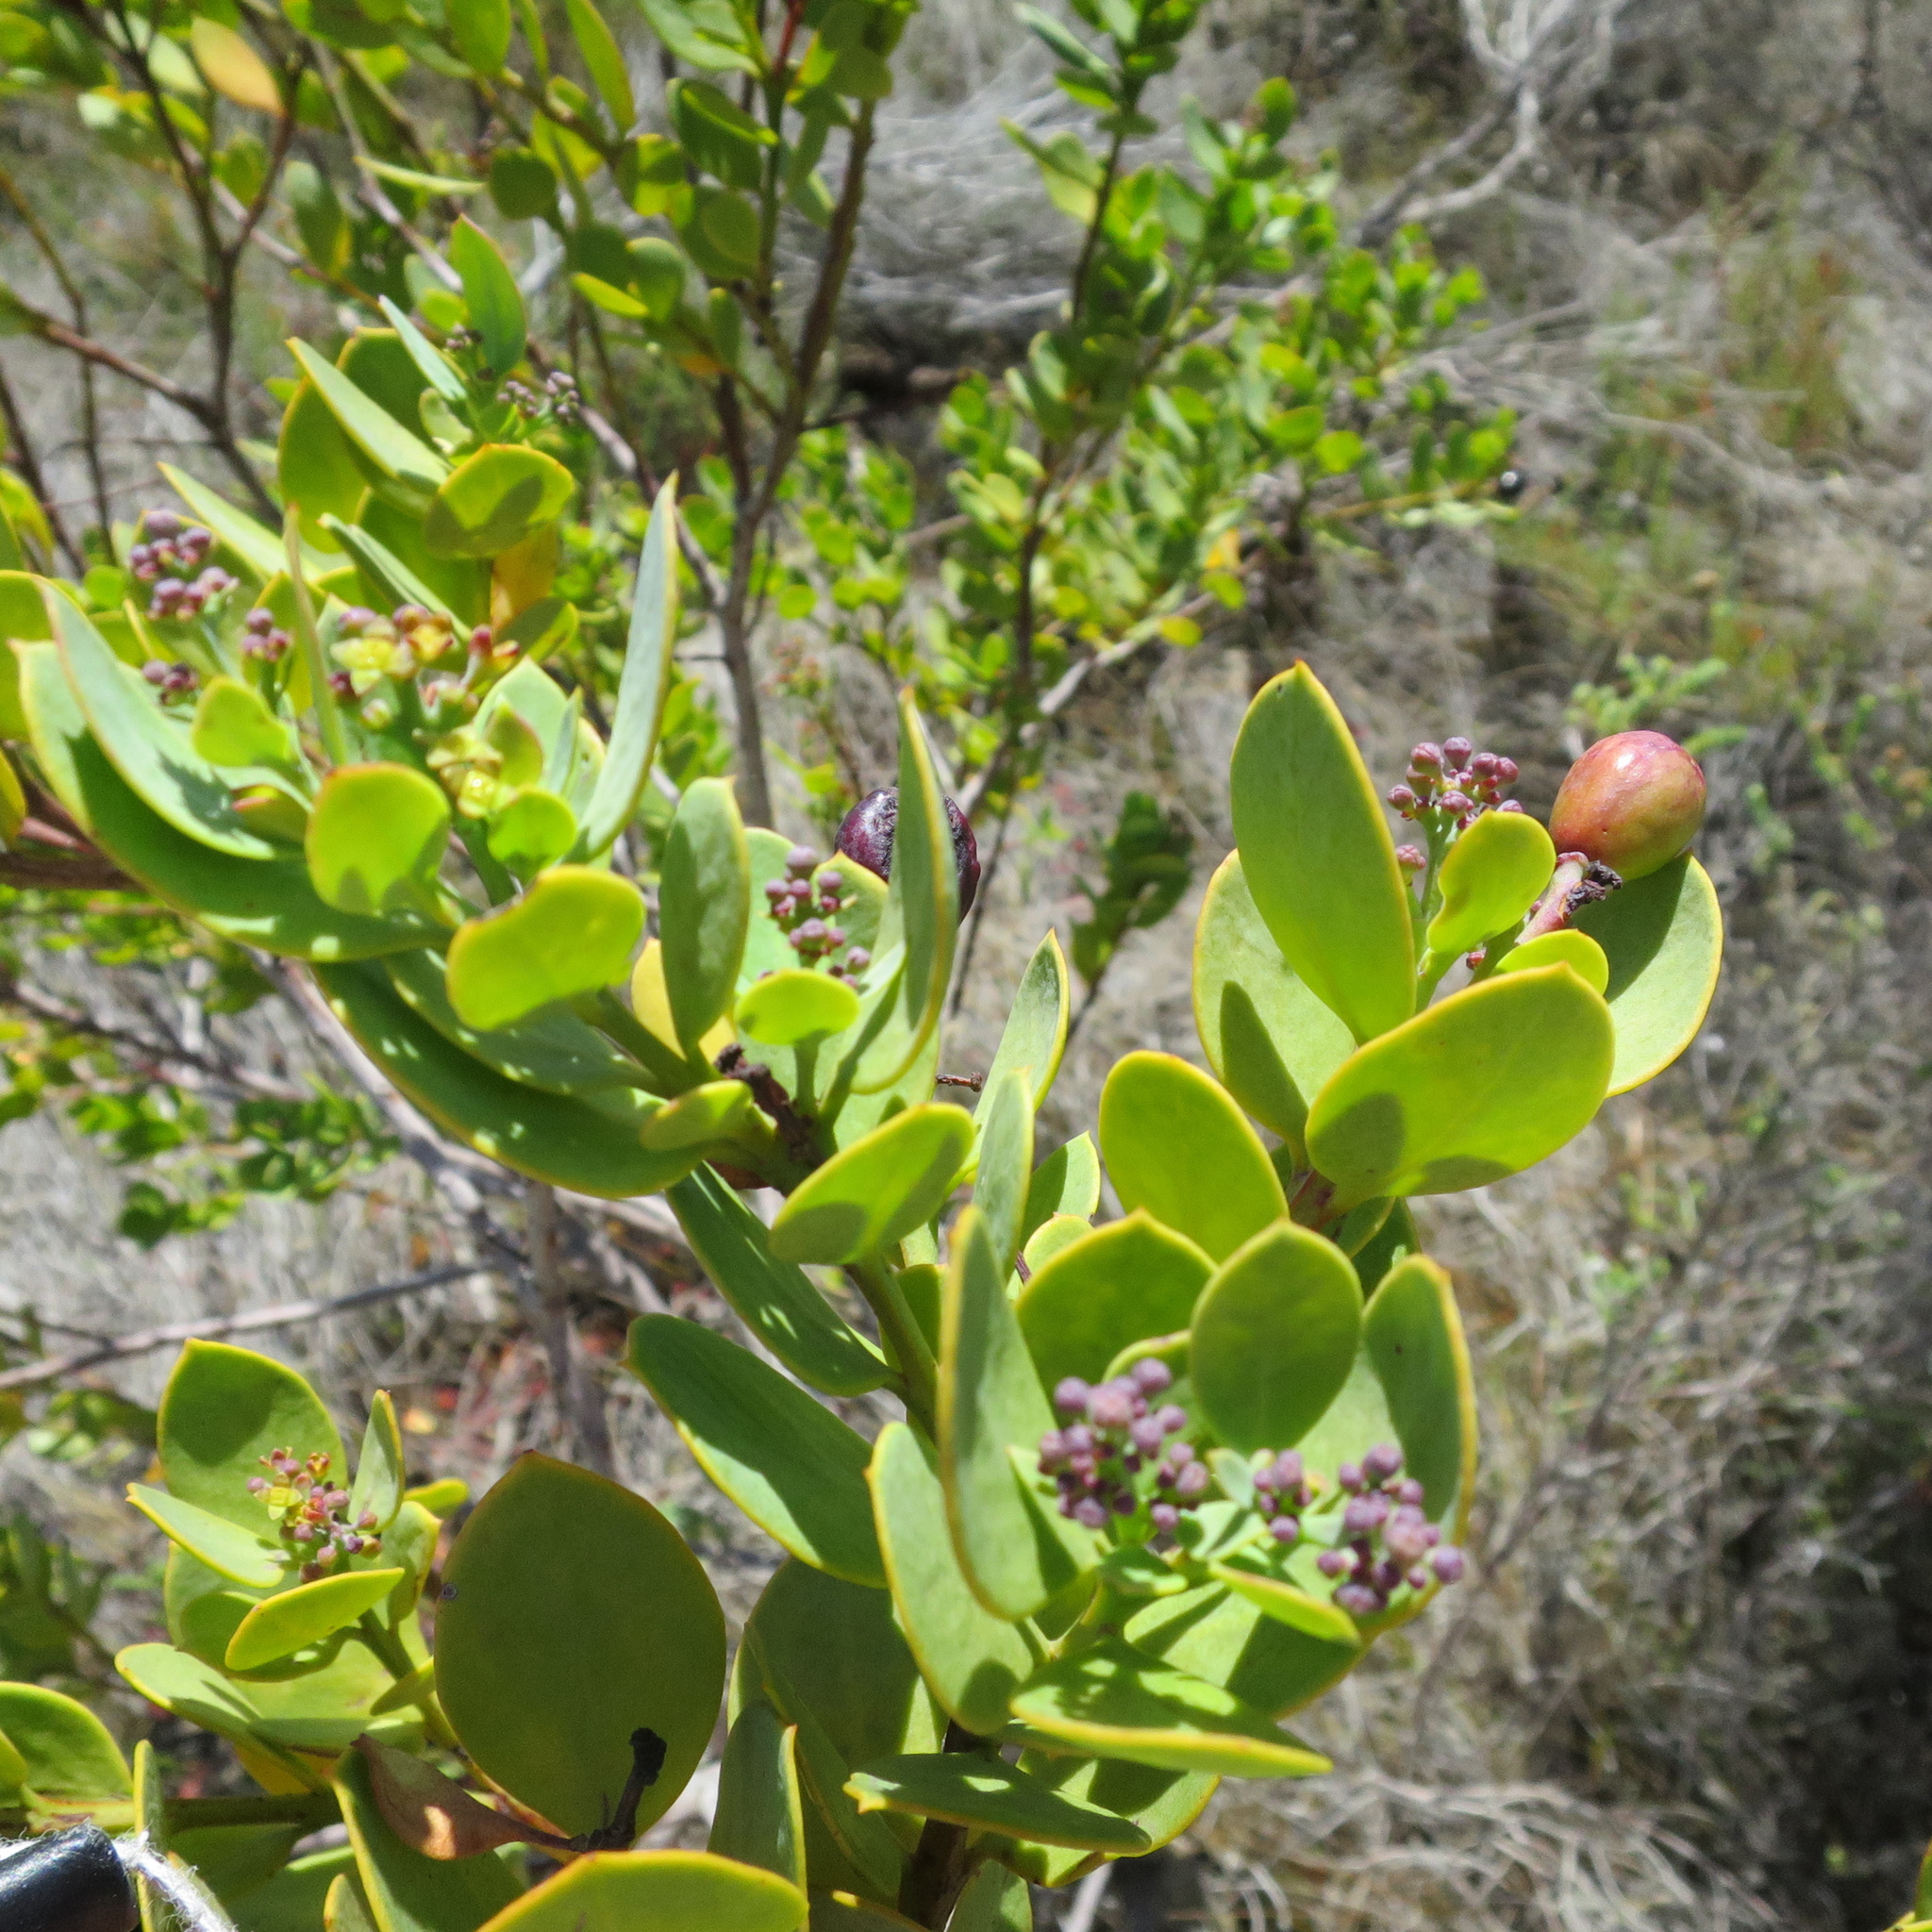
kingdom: Plantae
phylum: Tracheophyta
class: Magnoliopsida
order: Santalales
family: Santalaceae
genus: Osyris
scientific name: Osyris compressa
